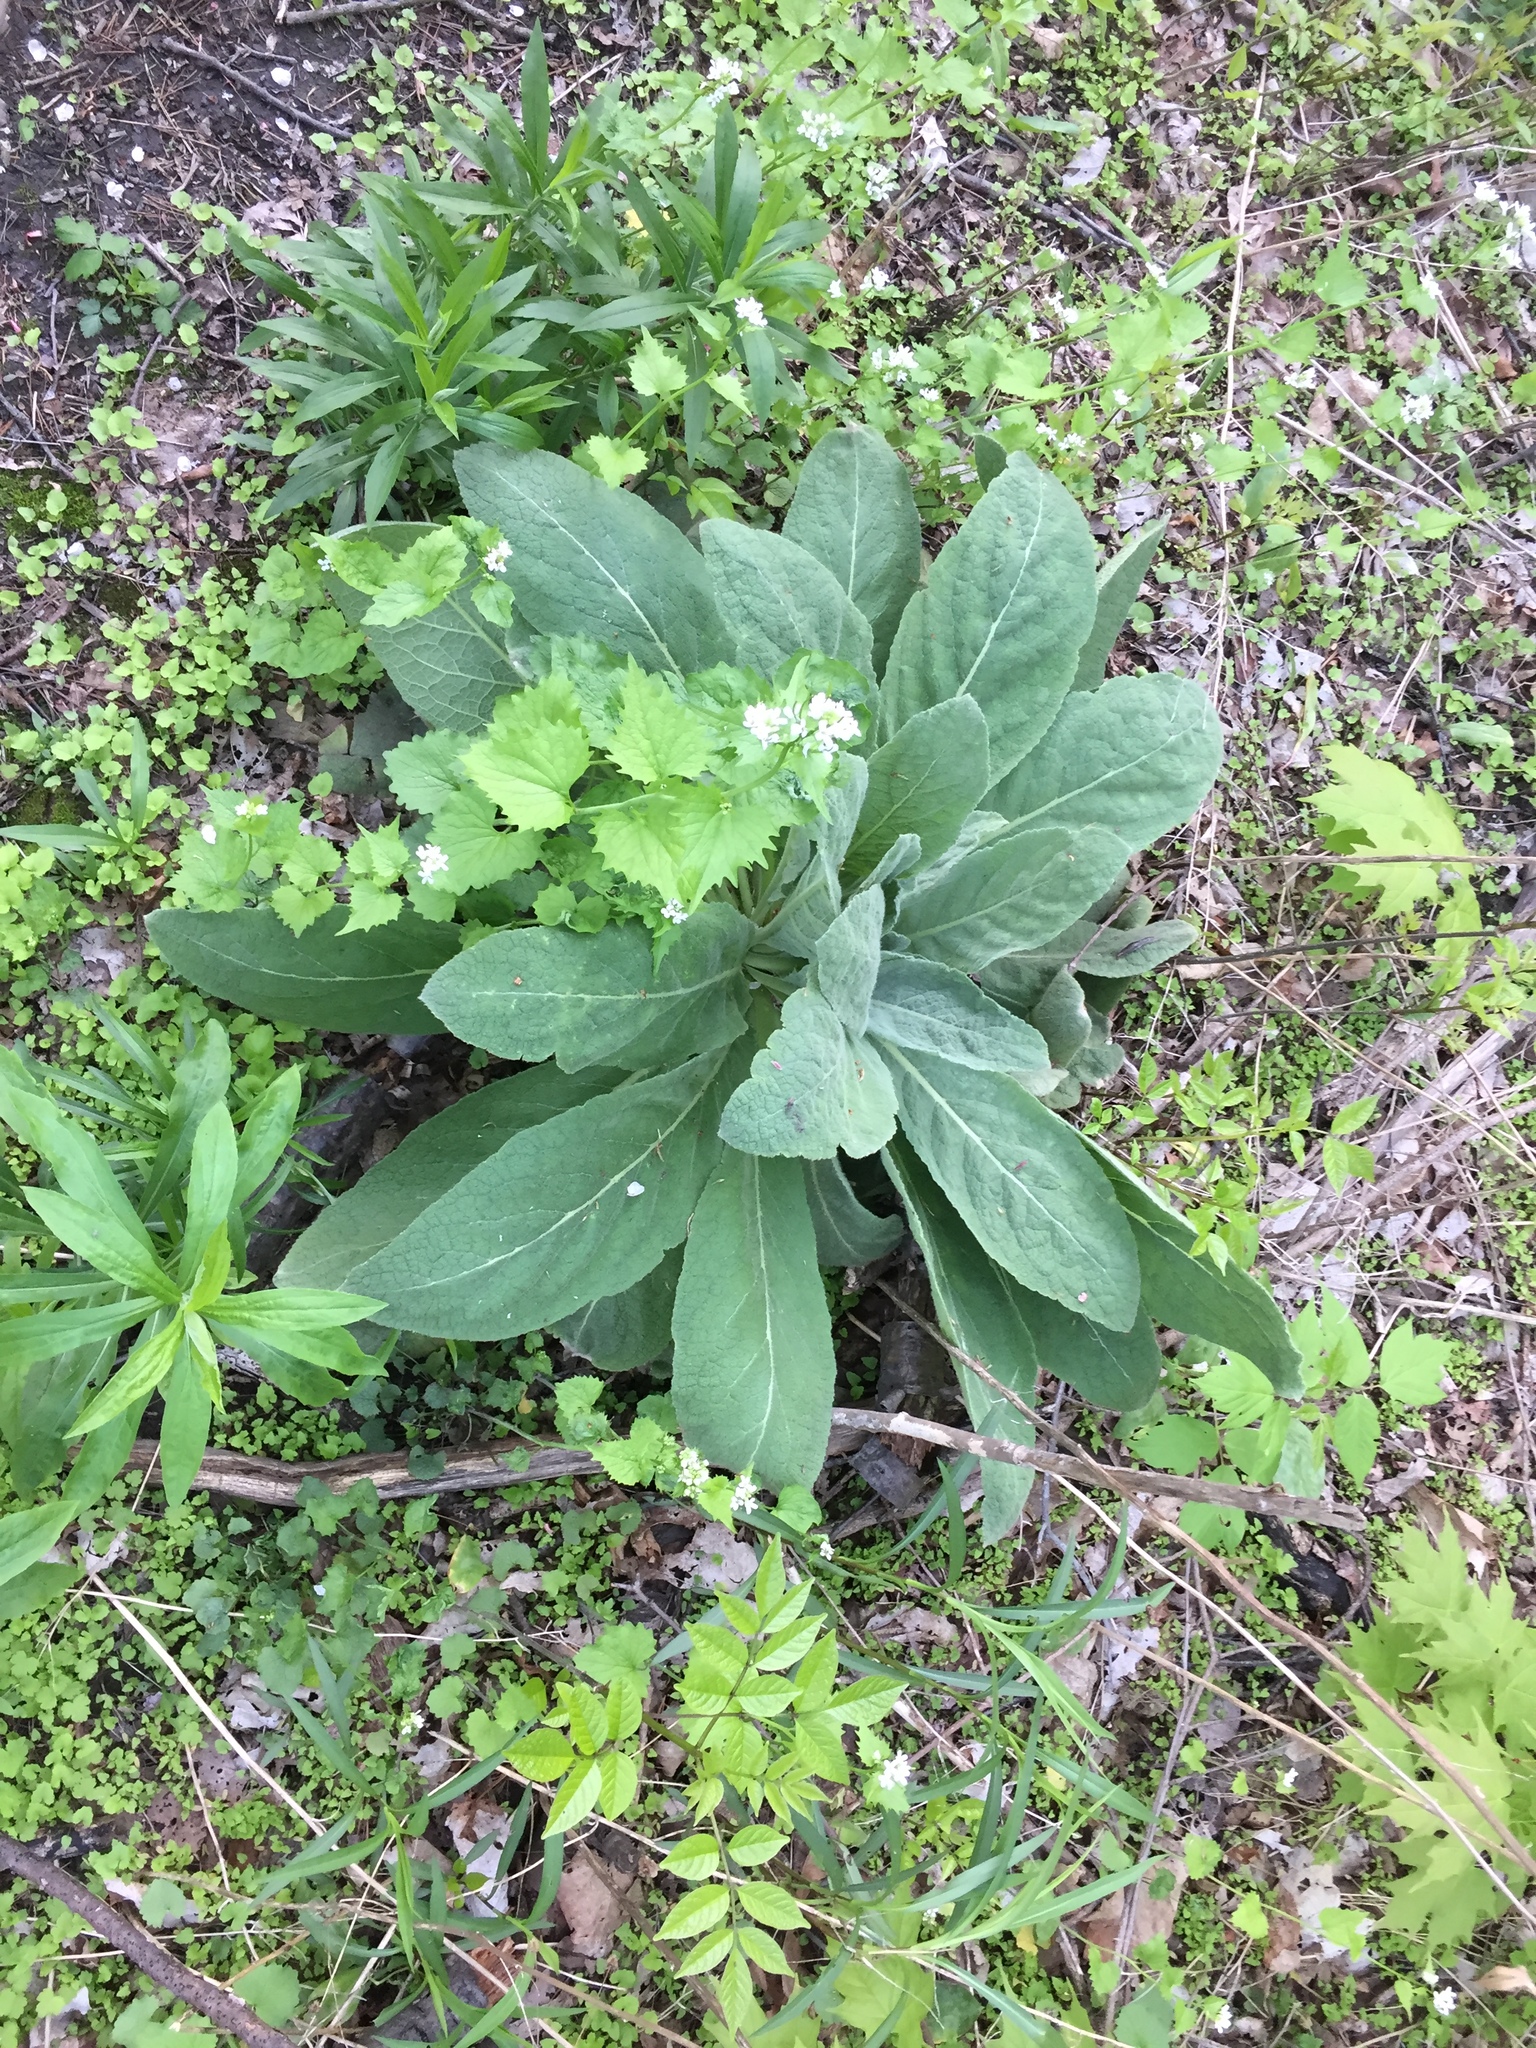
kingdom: Plantae
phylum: Tracheophyta
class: Magnoliopsida
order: Lamiales
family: Scrophulariaceae
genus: Verbascum
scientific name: Verbascum thapsus
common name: Common mullein
